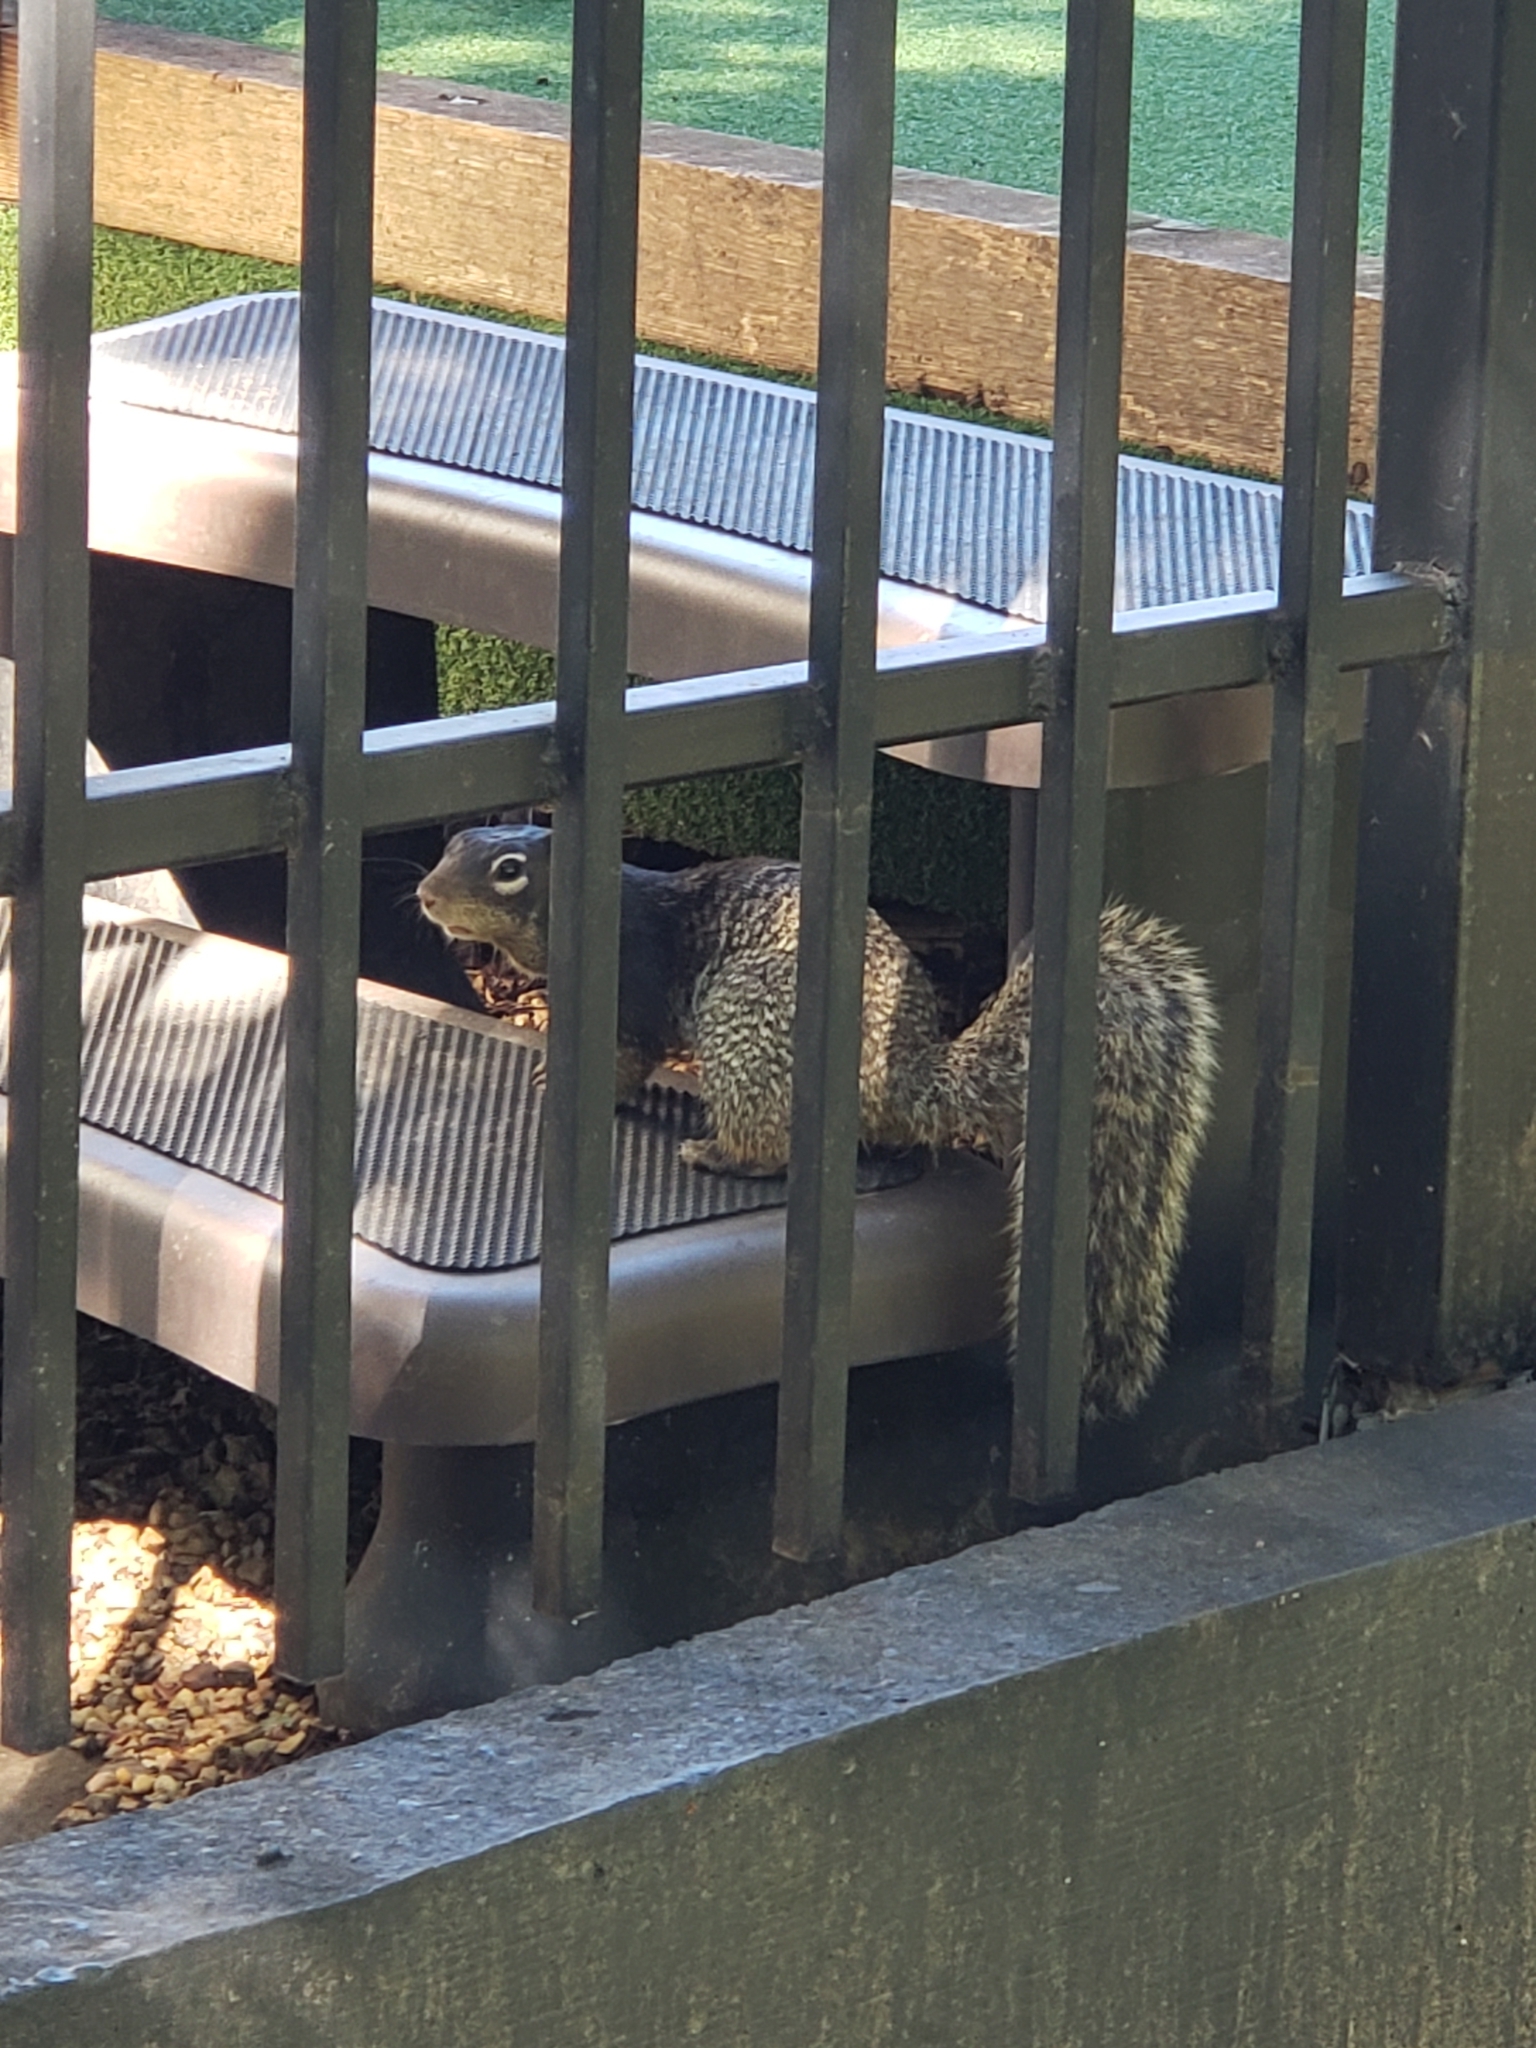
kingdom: Animalia
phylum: Chordata
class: Mammalia
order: Rodentia
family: Sciuridae
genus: Otospermophilus
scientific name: Otospermophilus variegatus
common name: Rock squirrel
